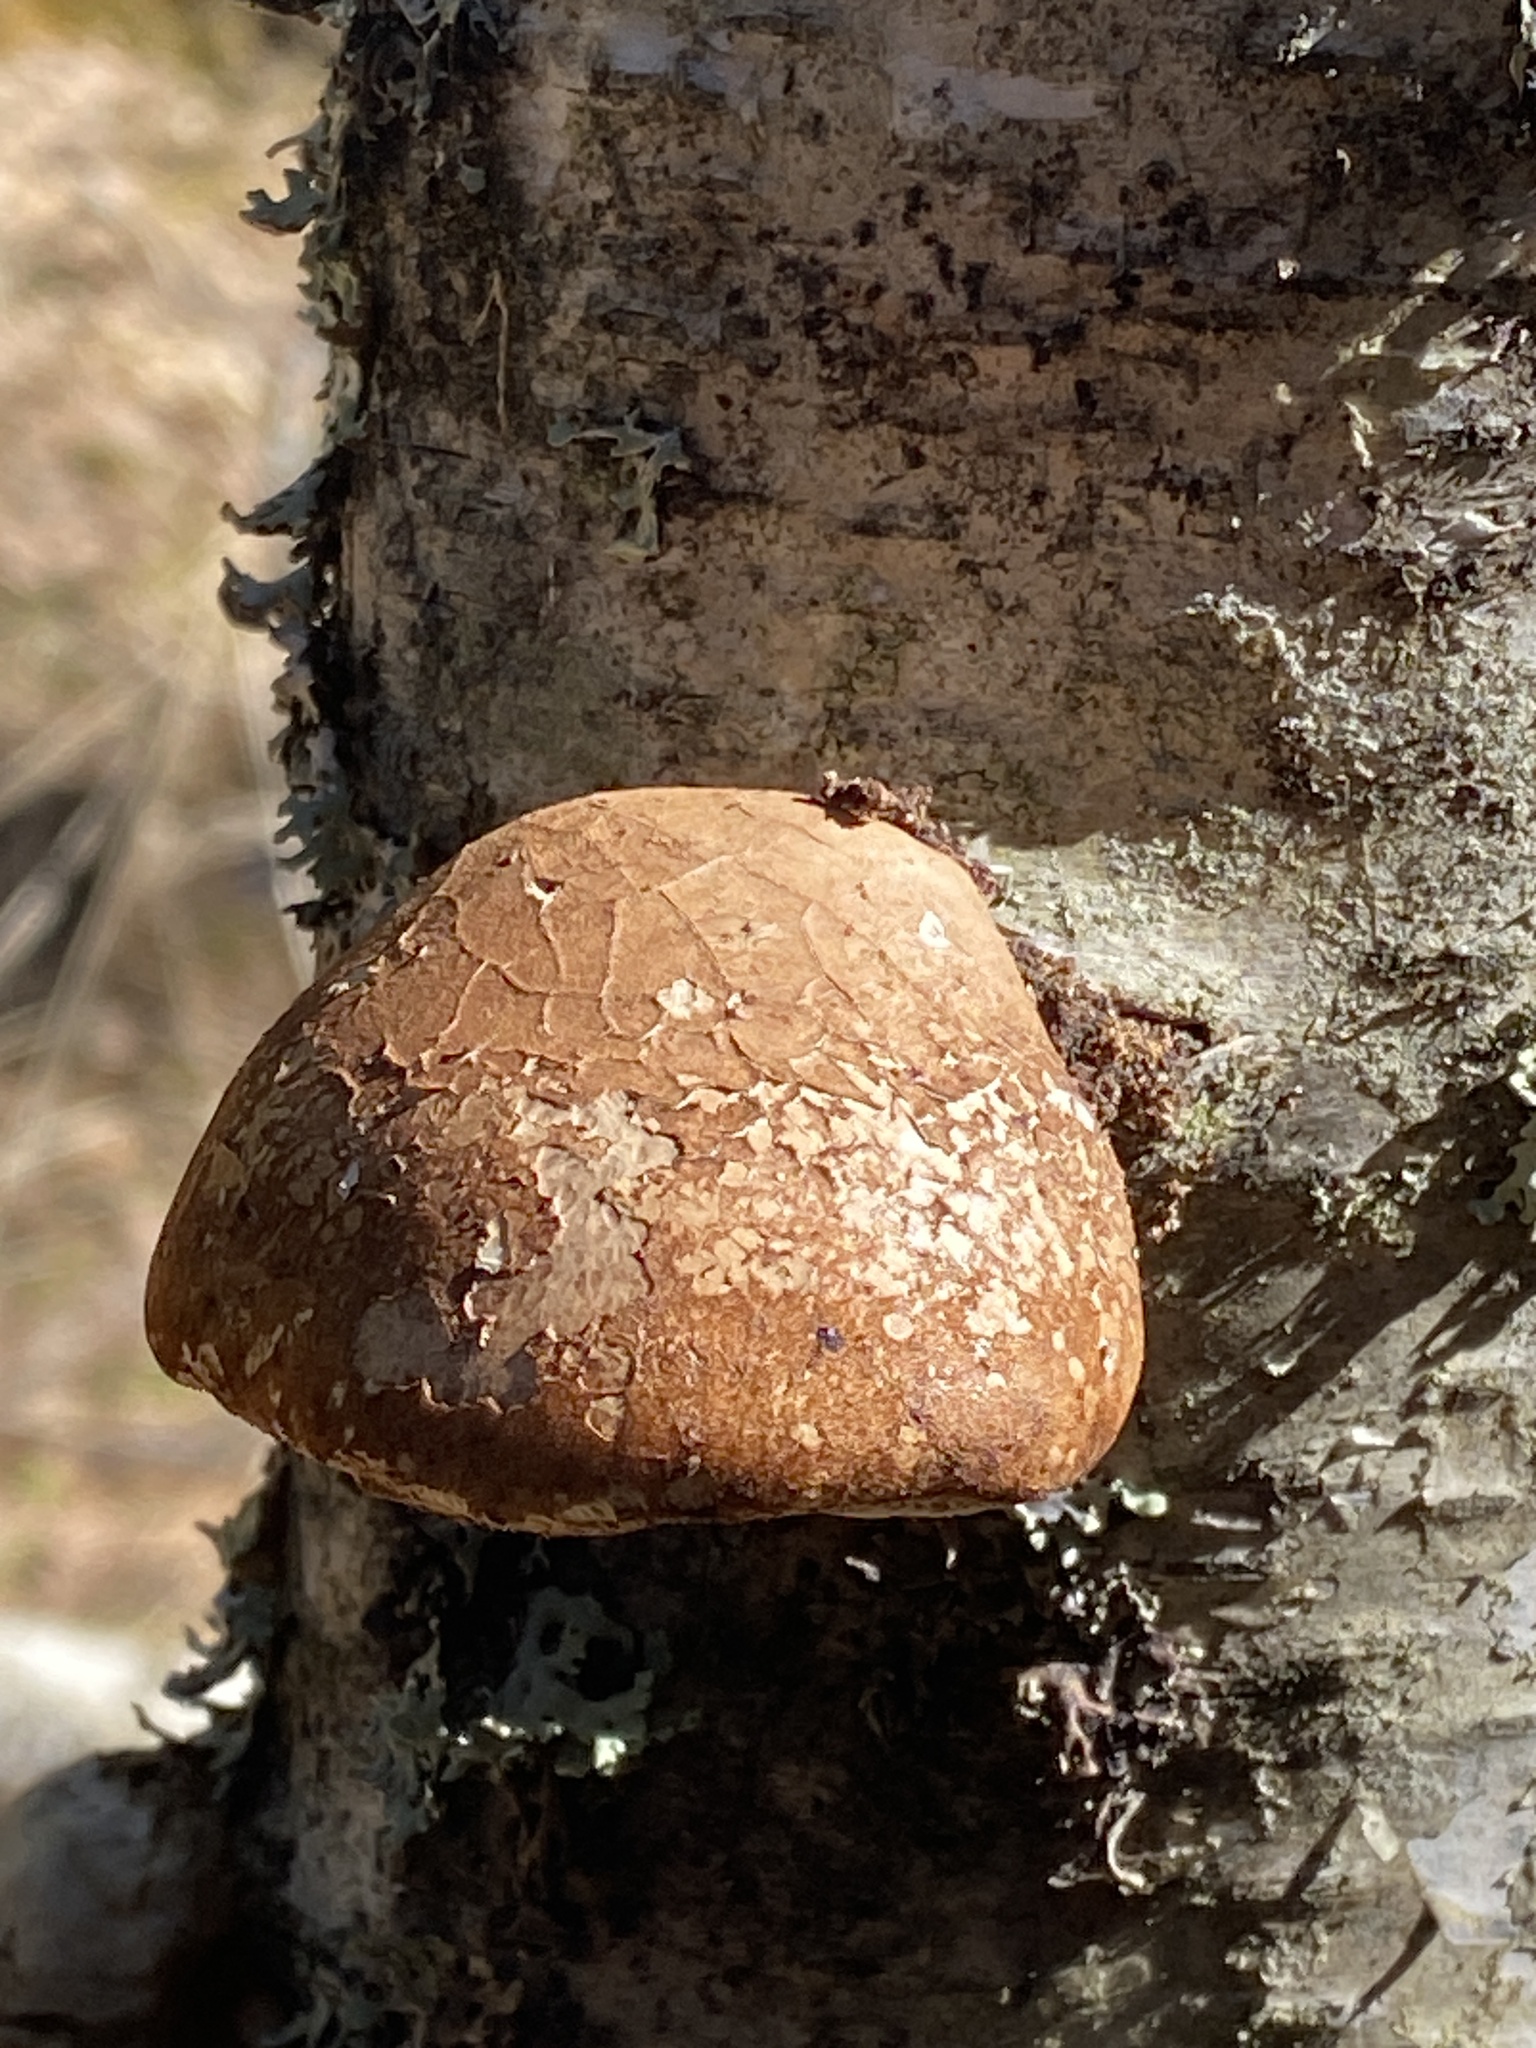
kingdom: Fungi
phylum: Basidiomycota
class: Agaricomycetes
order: Polyporales
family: Fomitopsidaceae
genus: Fomitopsis
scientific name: Fomitopsis betulina
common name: Birch polypore
